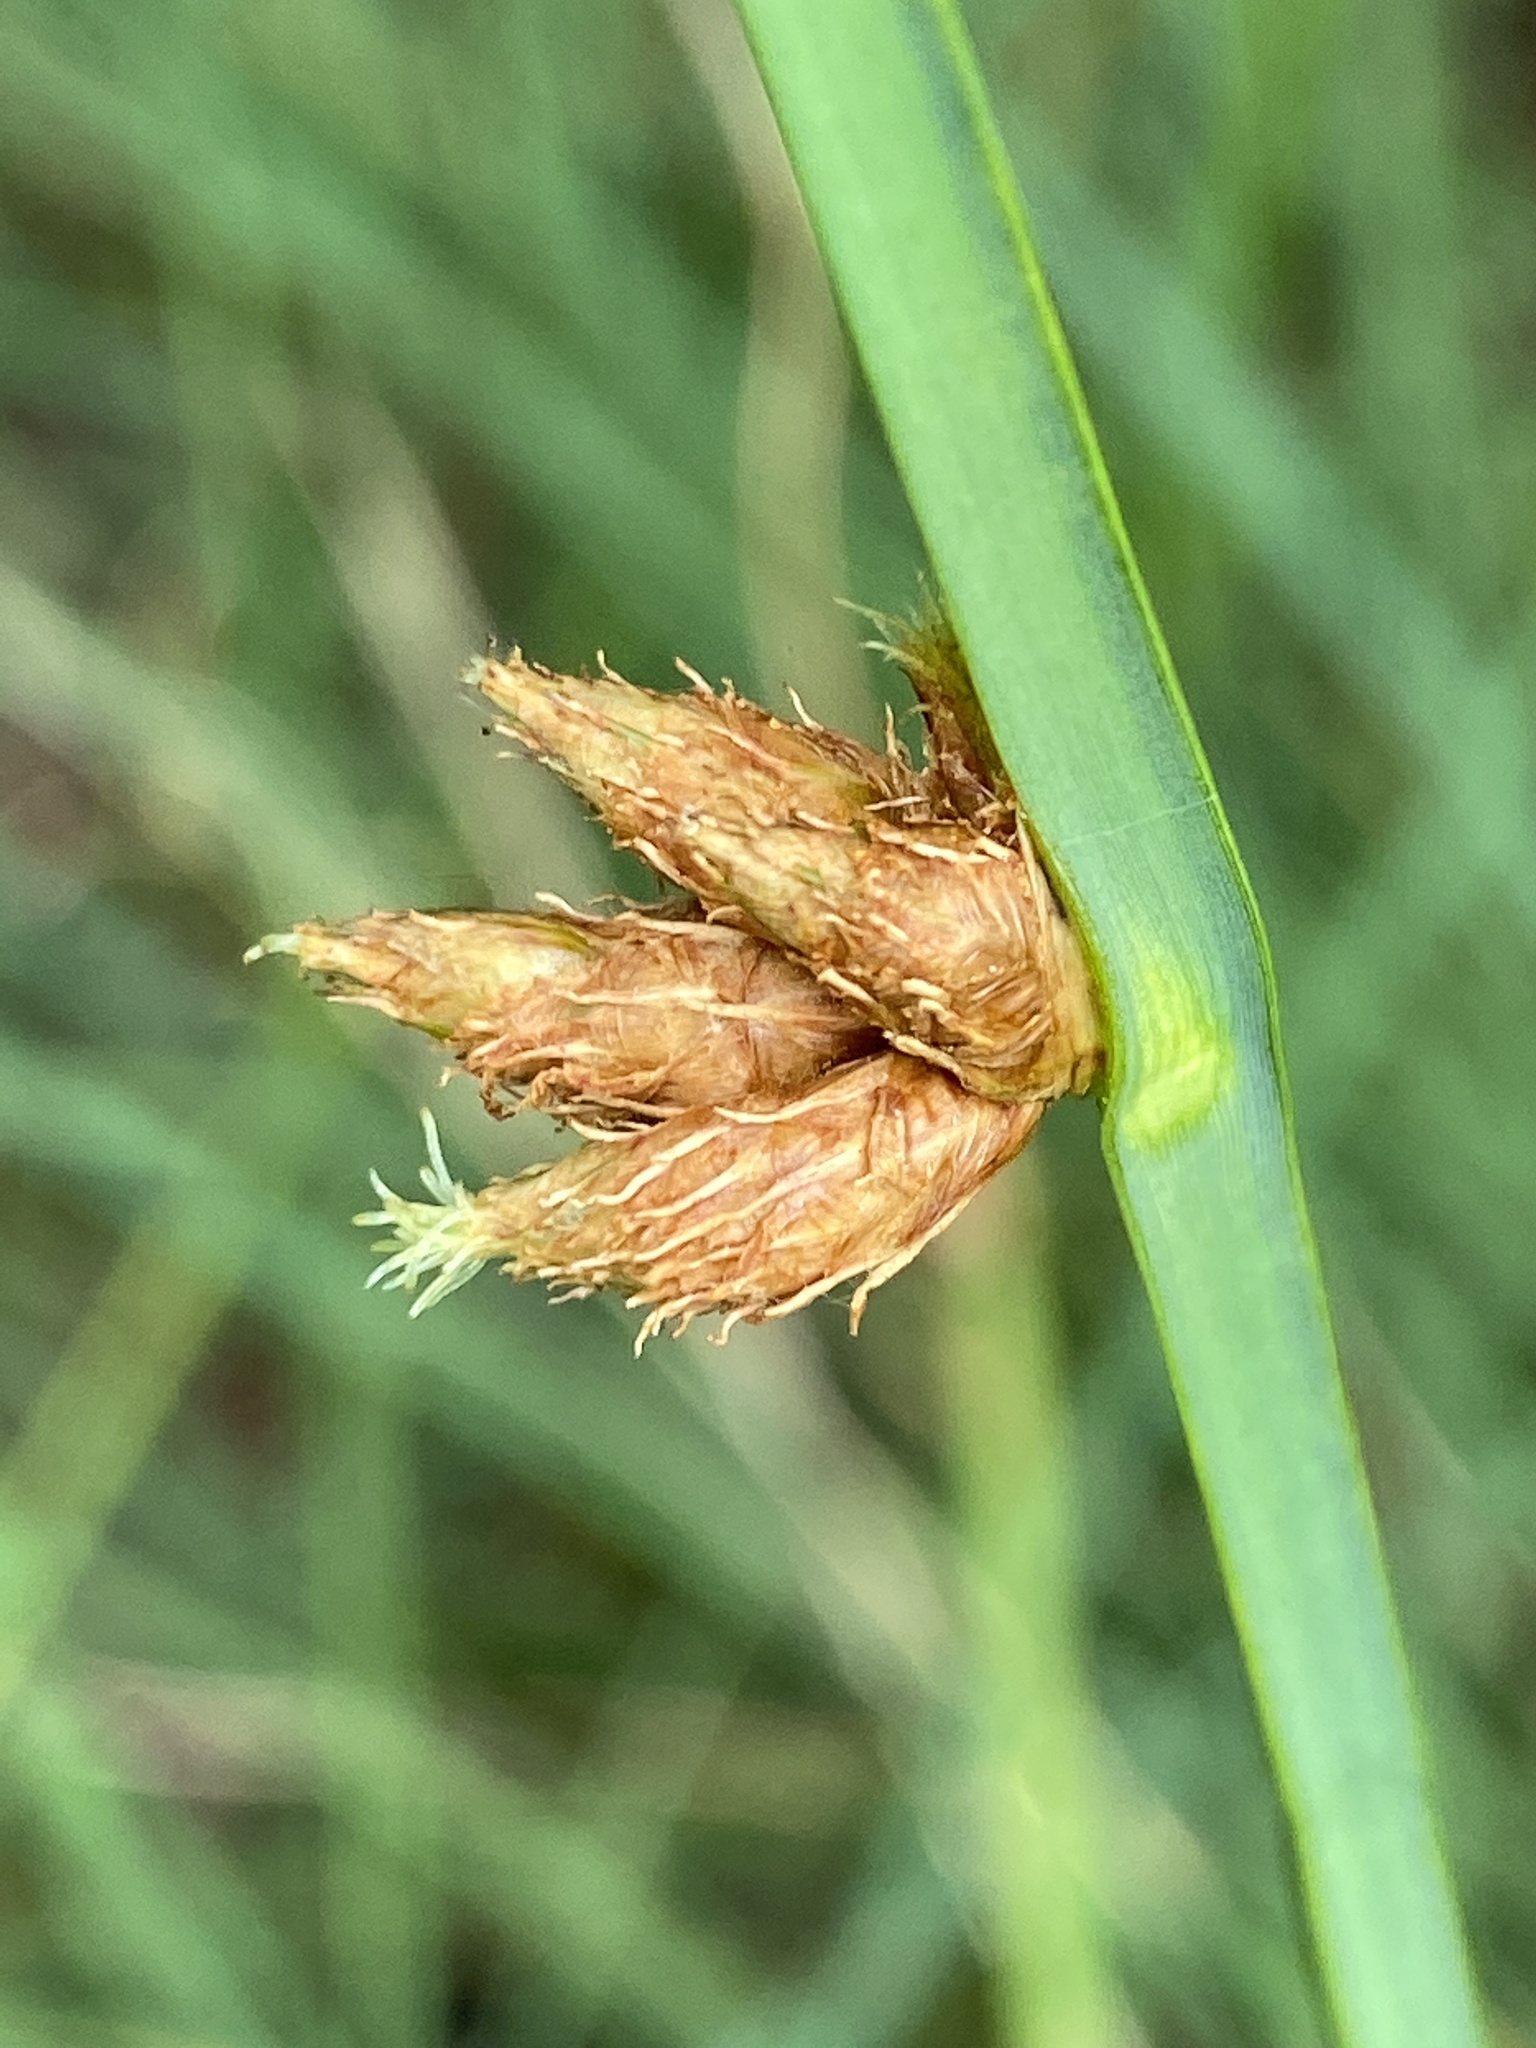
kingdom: Plantae
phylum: Tracheophyta
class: Liliopsida
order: Poales
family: Cyperaceae
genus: Schoenoplectus
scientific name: Schoenoplectus pungens
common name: Sharp club-rush
